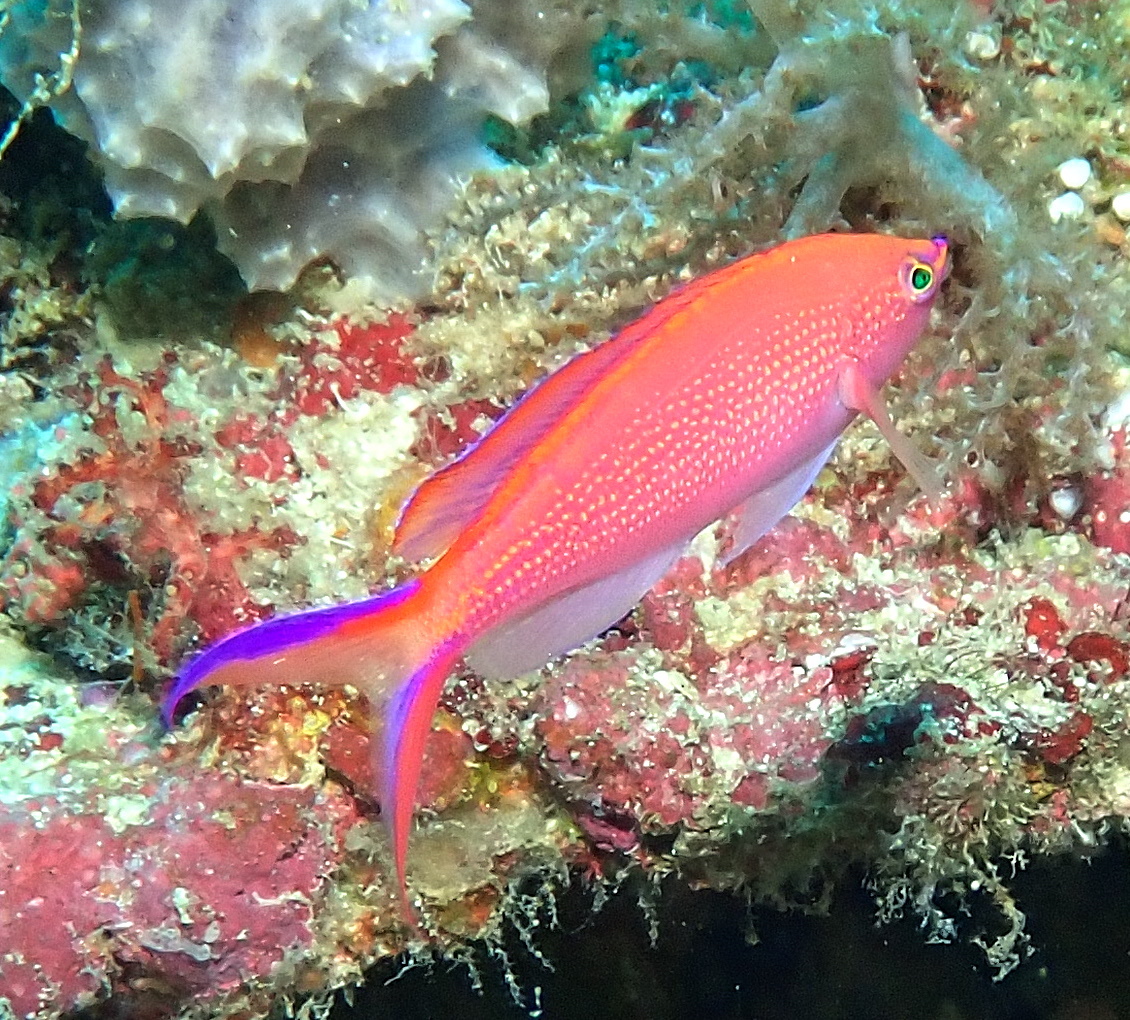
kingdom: Animalia
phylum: Chordata
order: Perciformes
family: Serranidae
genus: Pyronotanthias
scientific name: Pyronotanthias
